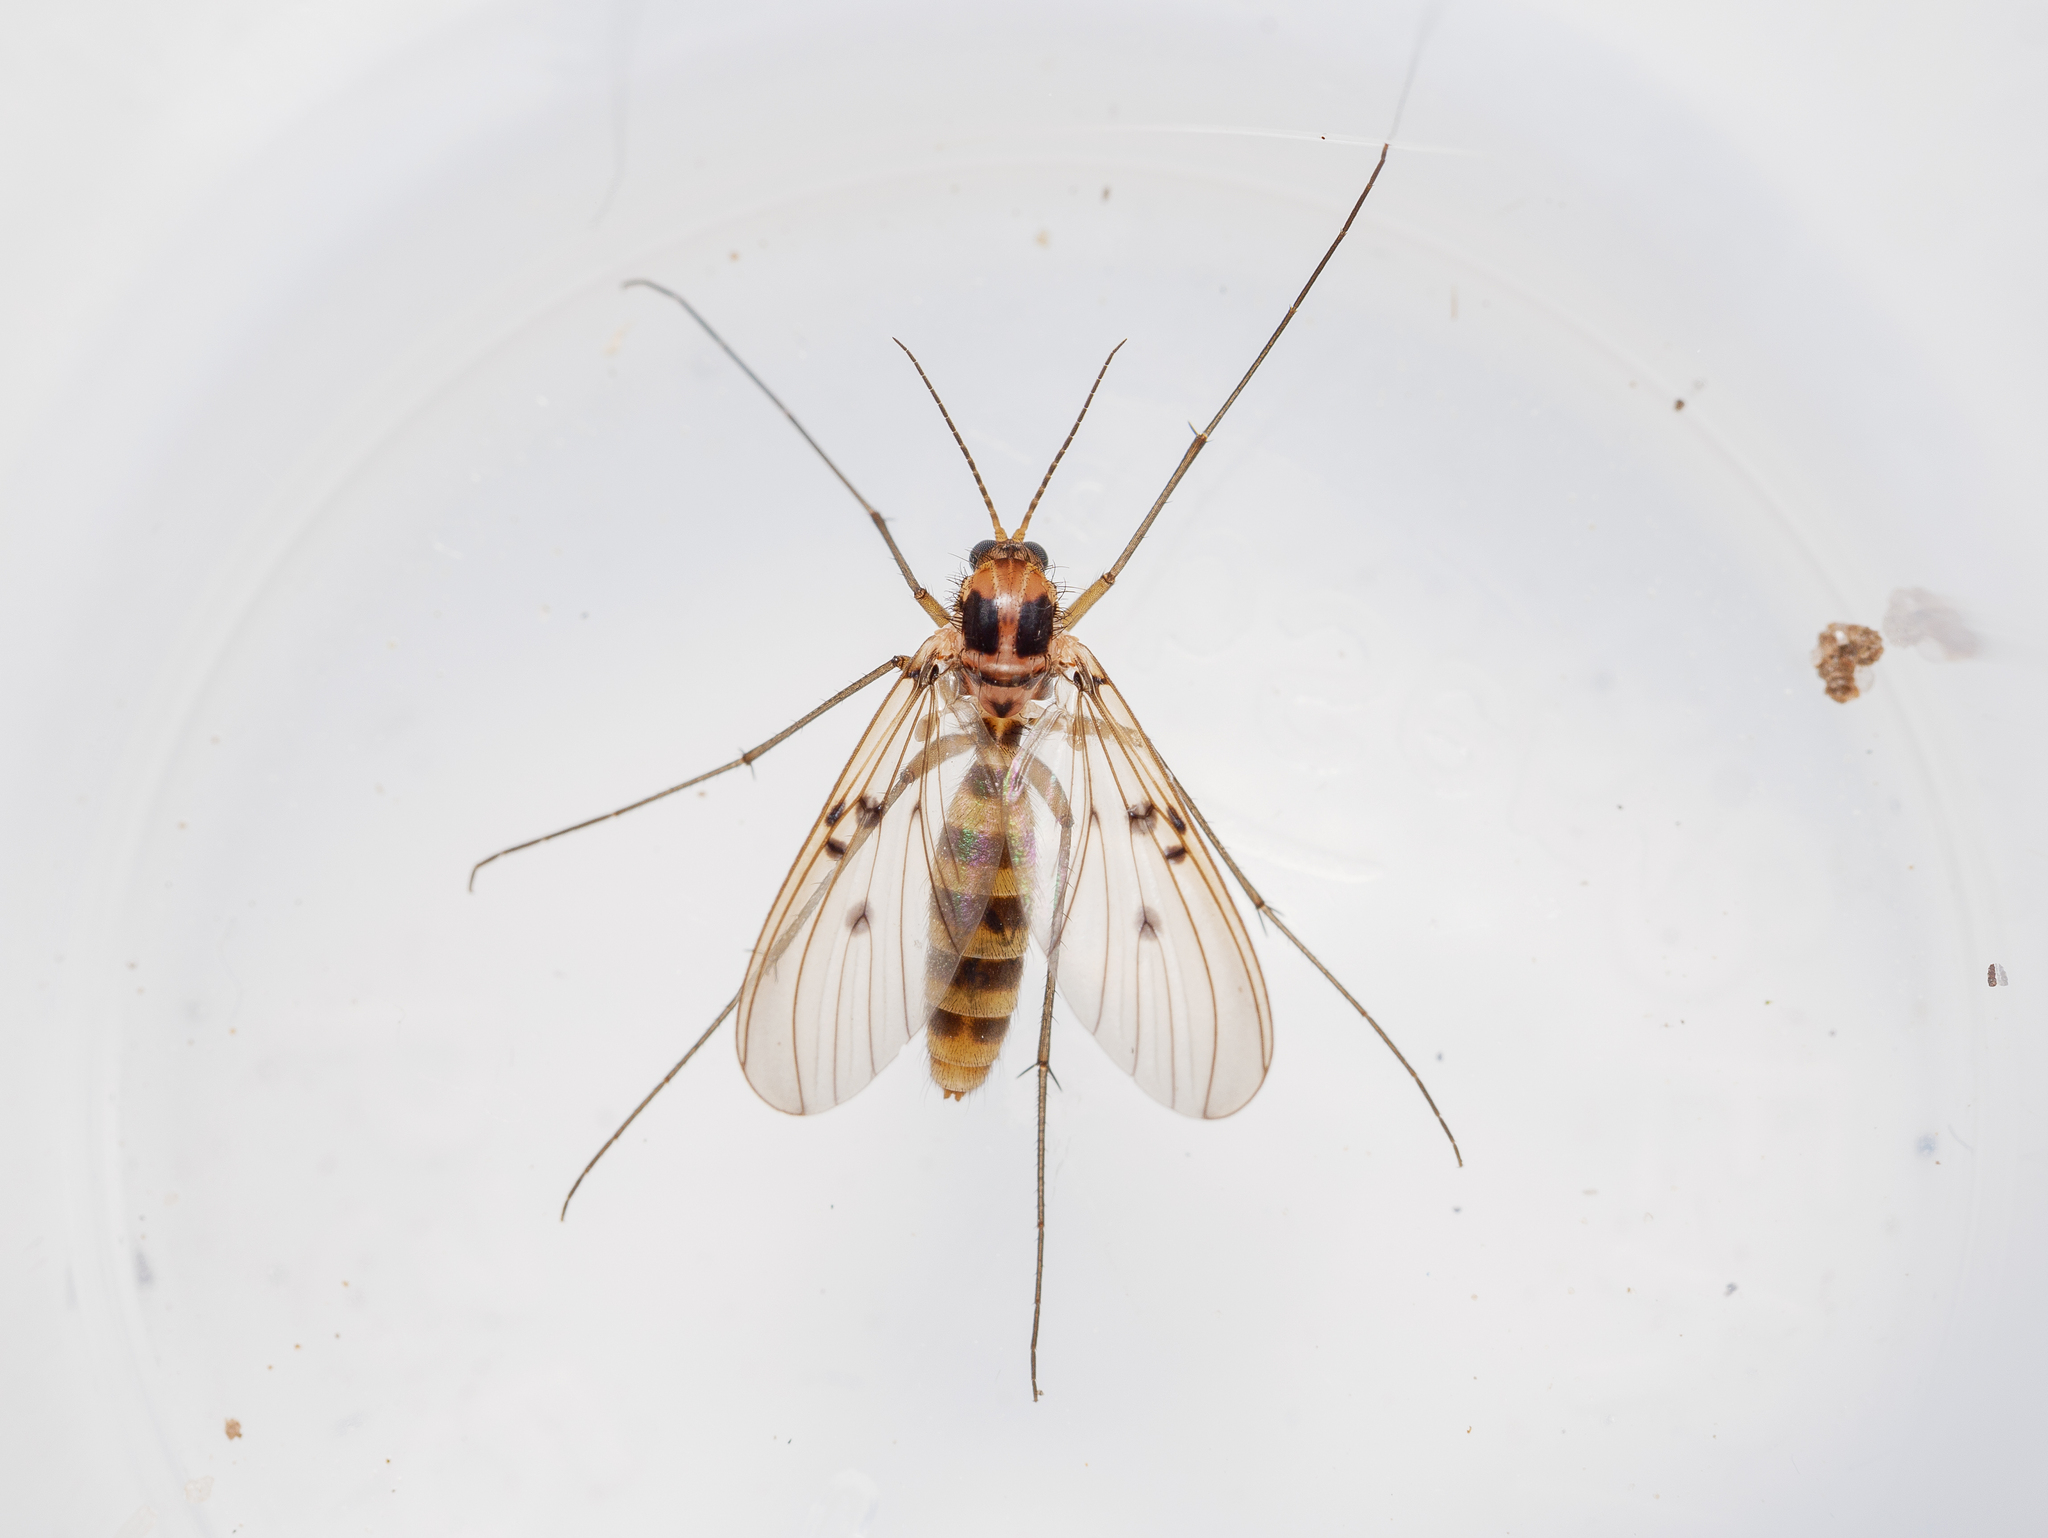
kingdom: Animalia
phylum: Arthropoda
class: Insecta
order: Diptera
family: Mycetophilidae
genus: Mycomya
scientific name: Mycomya quadrimaculata
